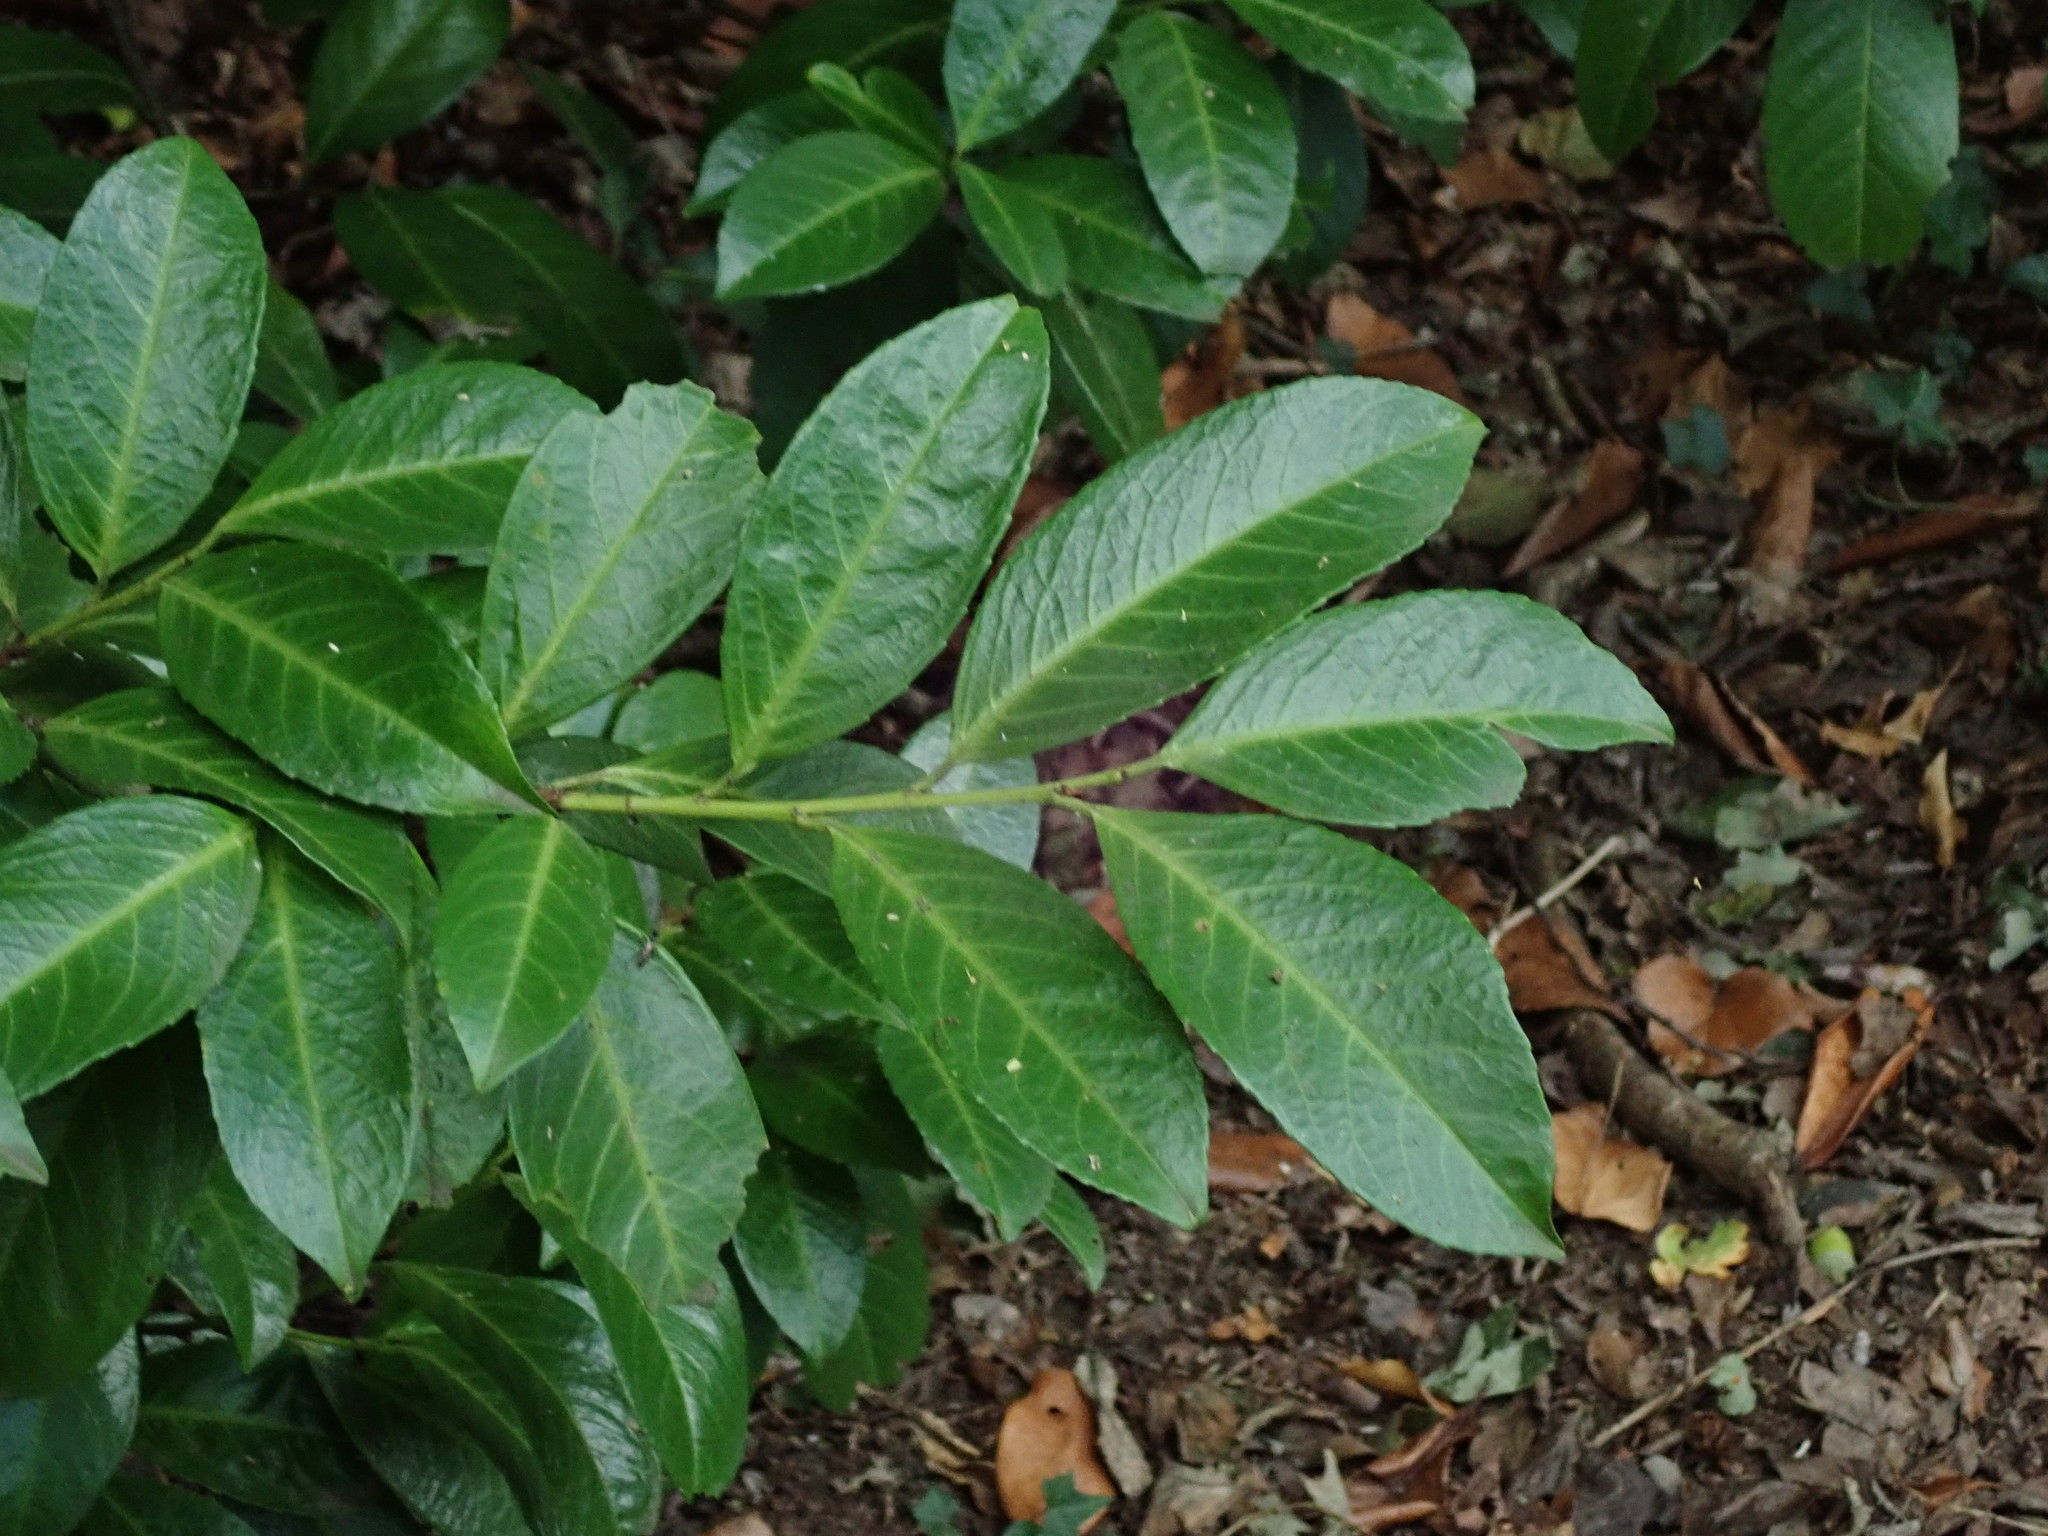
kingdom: Plantae
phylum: Tracheophyta
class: Magnoliopsida
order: Rosales
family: Rosaceae
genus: Prunus
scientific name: Prunus laurocerasus
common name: Cherry laurel
